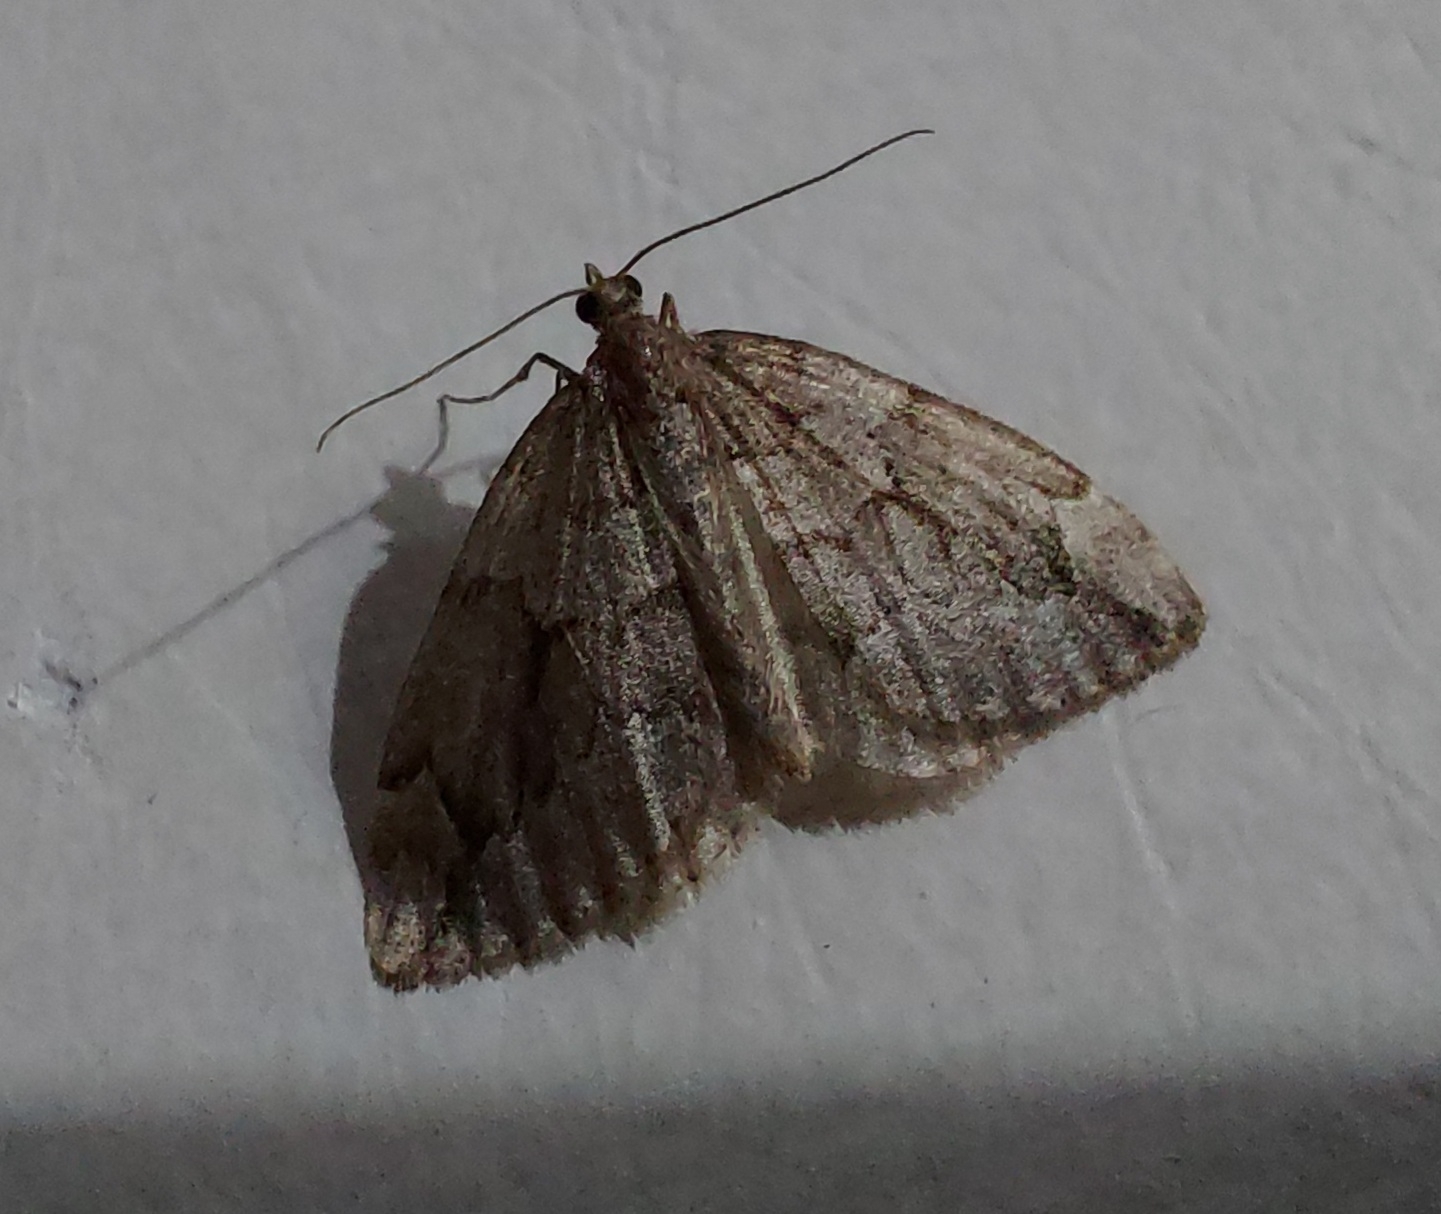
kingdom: Animalia
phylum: Arthropoda
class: Insecta
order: Lepidoptera
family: Geometridae
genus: Thera
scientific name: Thera juniperata
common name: Juniper carpet
